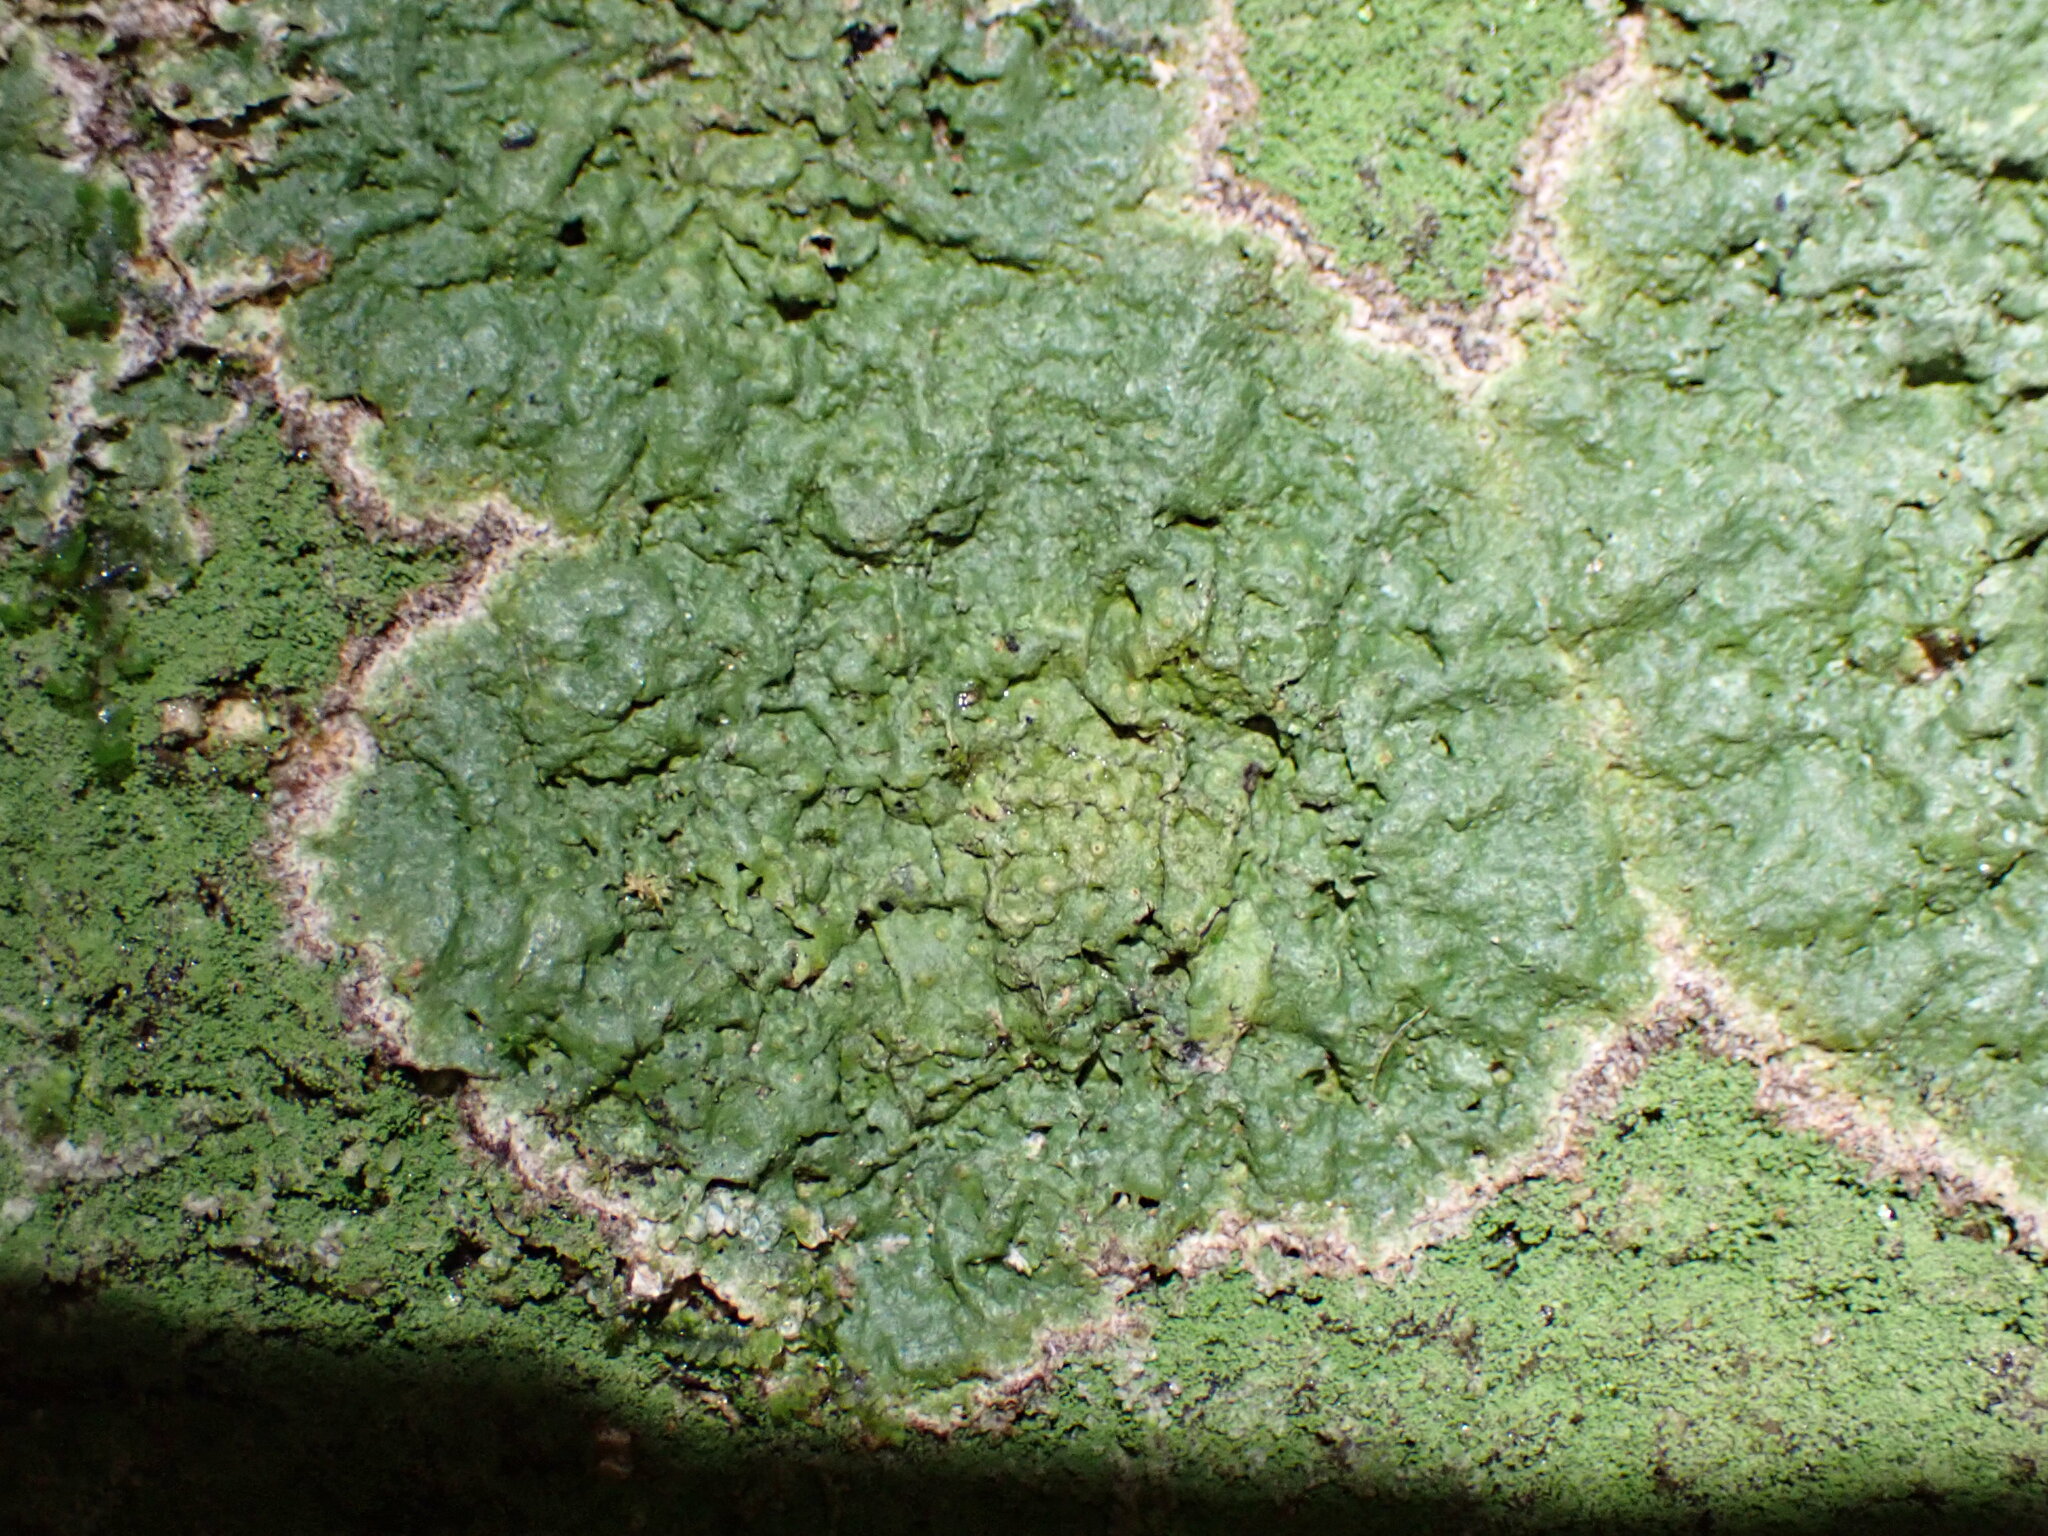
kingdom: Fungi
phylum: Ascomycota
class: Lecanoromycetes
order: Pertusariales
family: Pertusariaceae
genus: Porina
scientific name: Porina exocha
